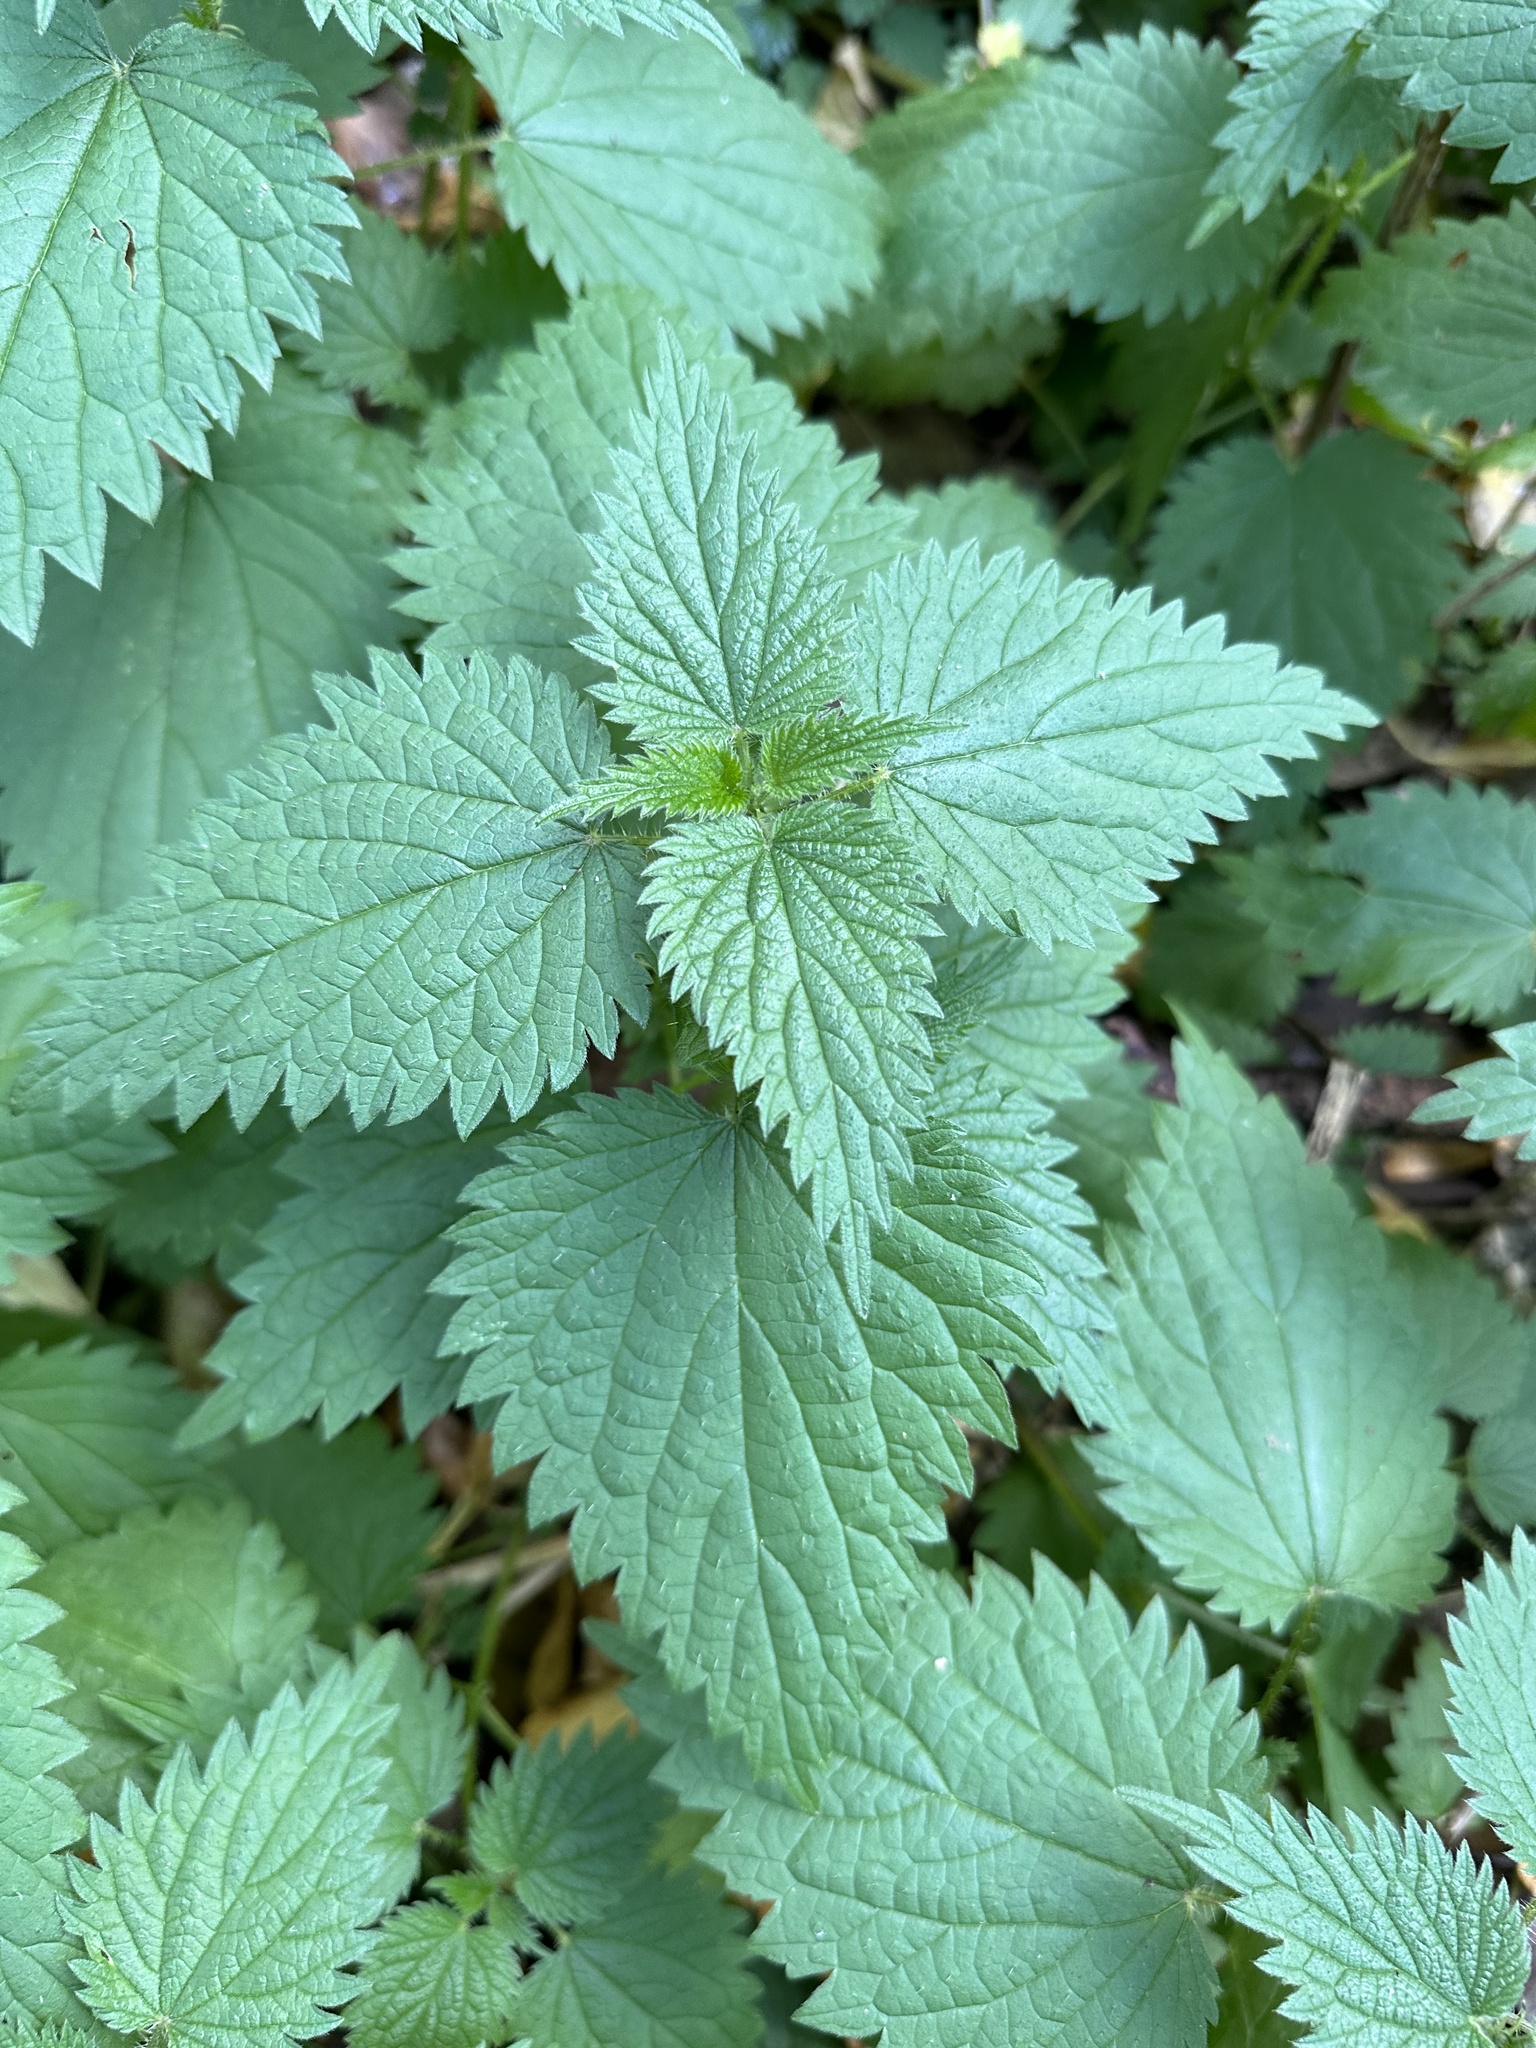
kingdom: Plantae
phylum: Tracheophyta
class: Magnoliopsida
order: Rosales
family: Urticaceae
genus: Urtica
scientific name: Urtica dioica
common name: Common nettle
